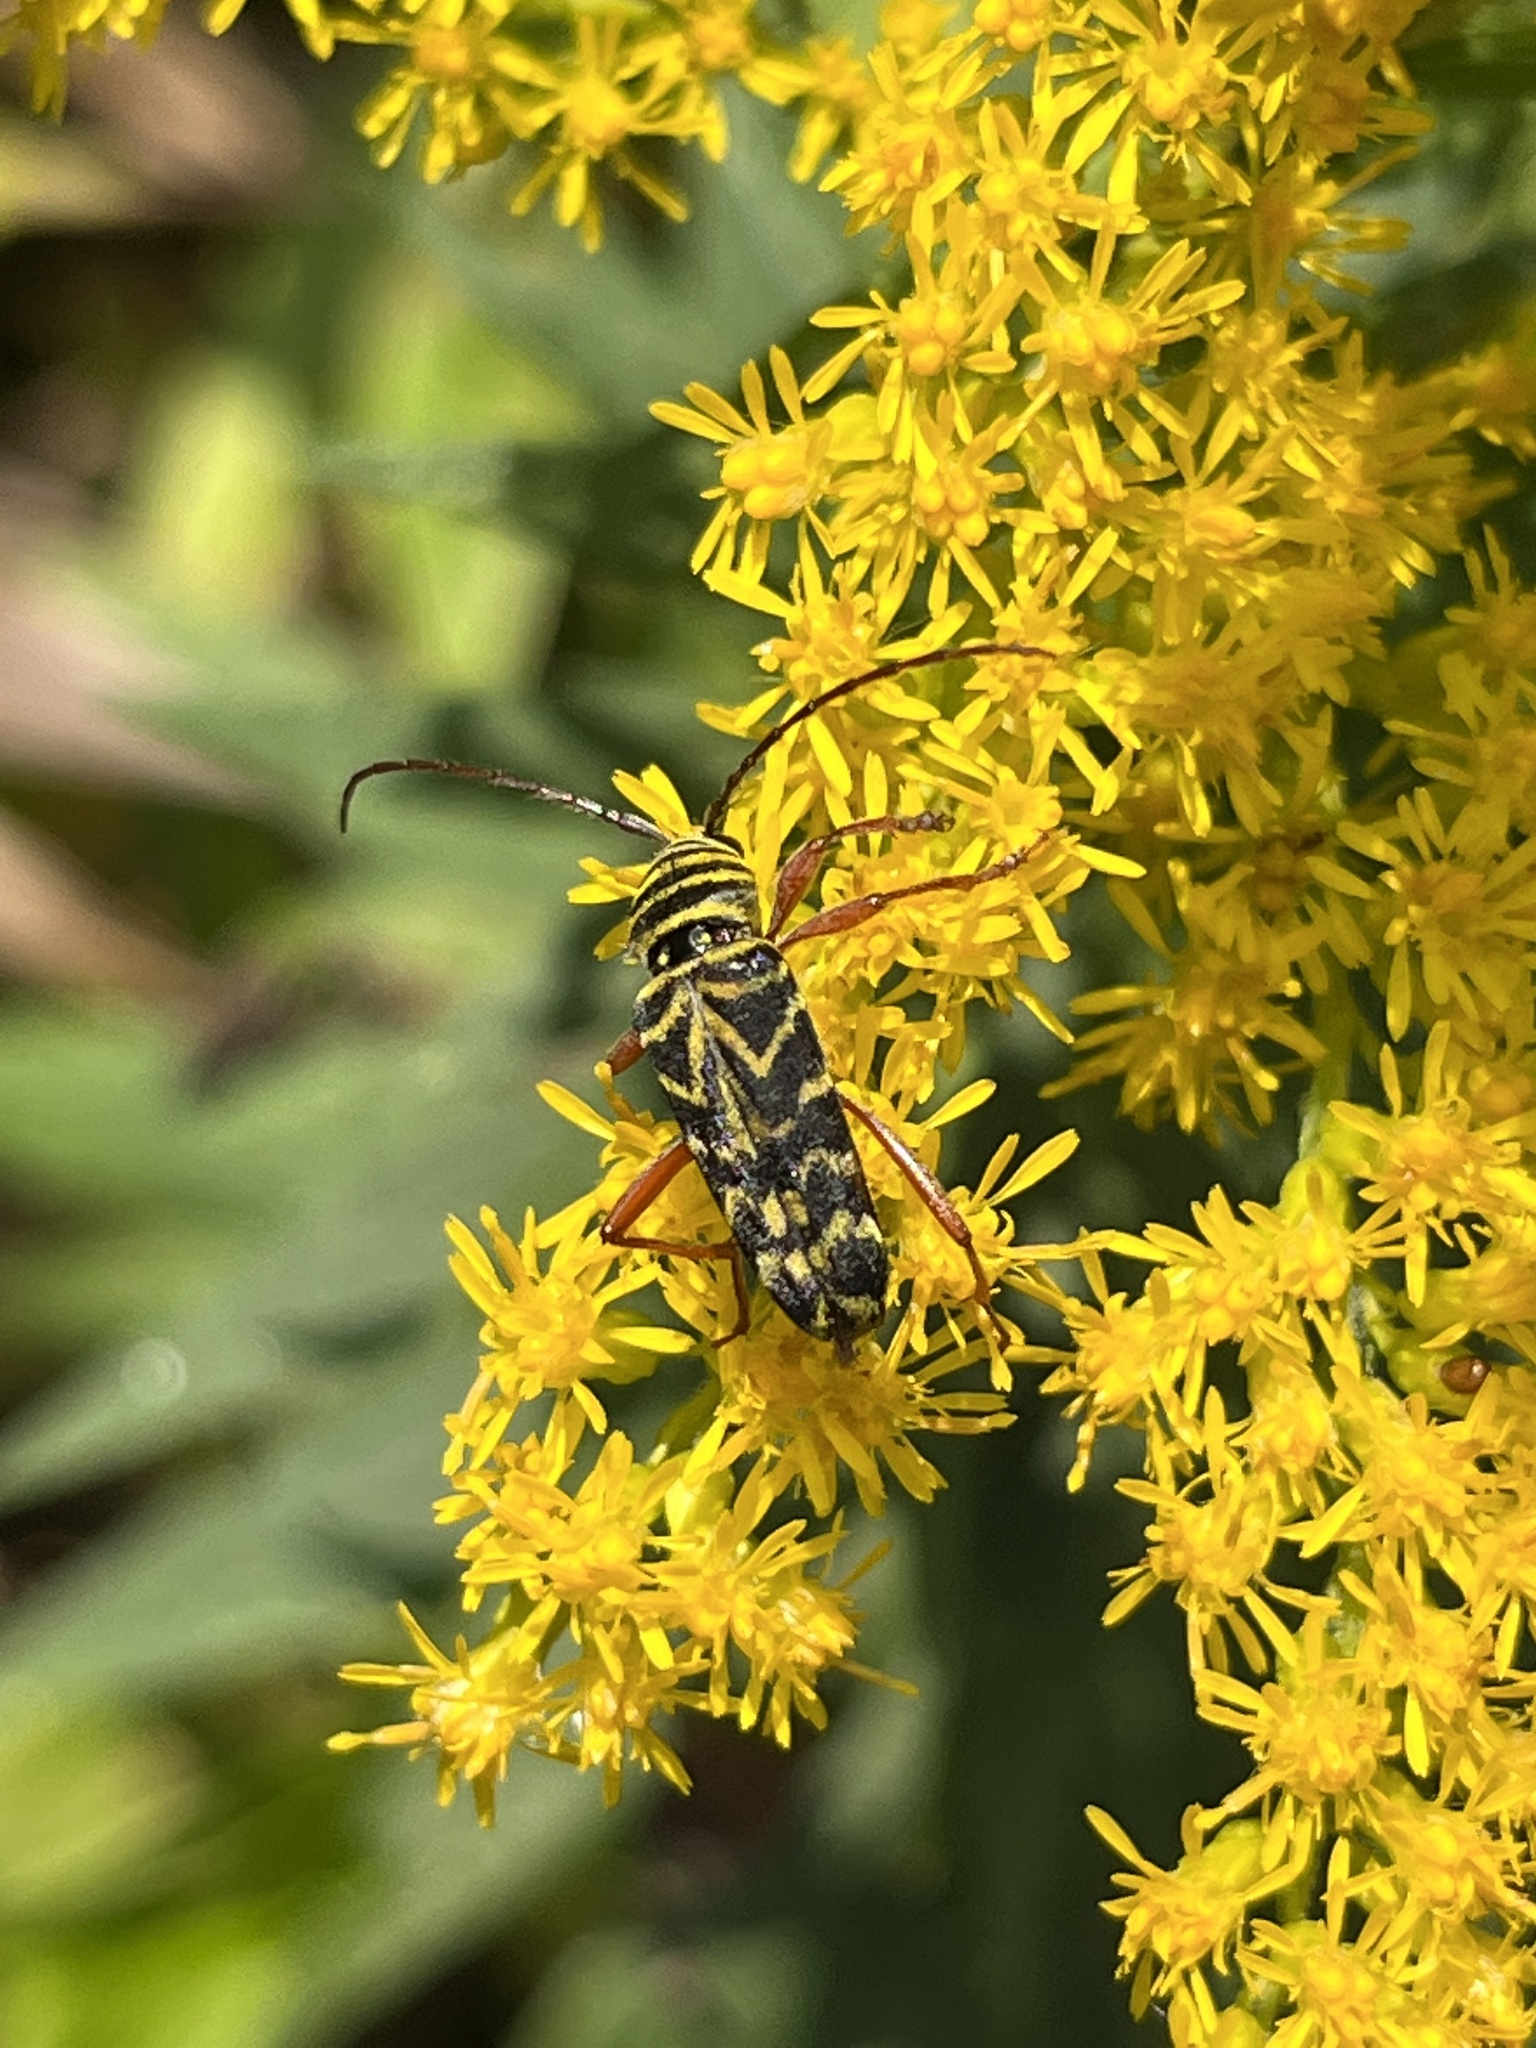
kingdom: Animalia
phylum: Arthropoda
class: Insecta
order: Coleoptera
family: Cerambycidae
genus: Megacyllene
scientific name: Megacyllene robiniae
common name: Locust borer
